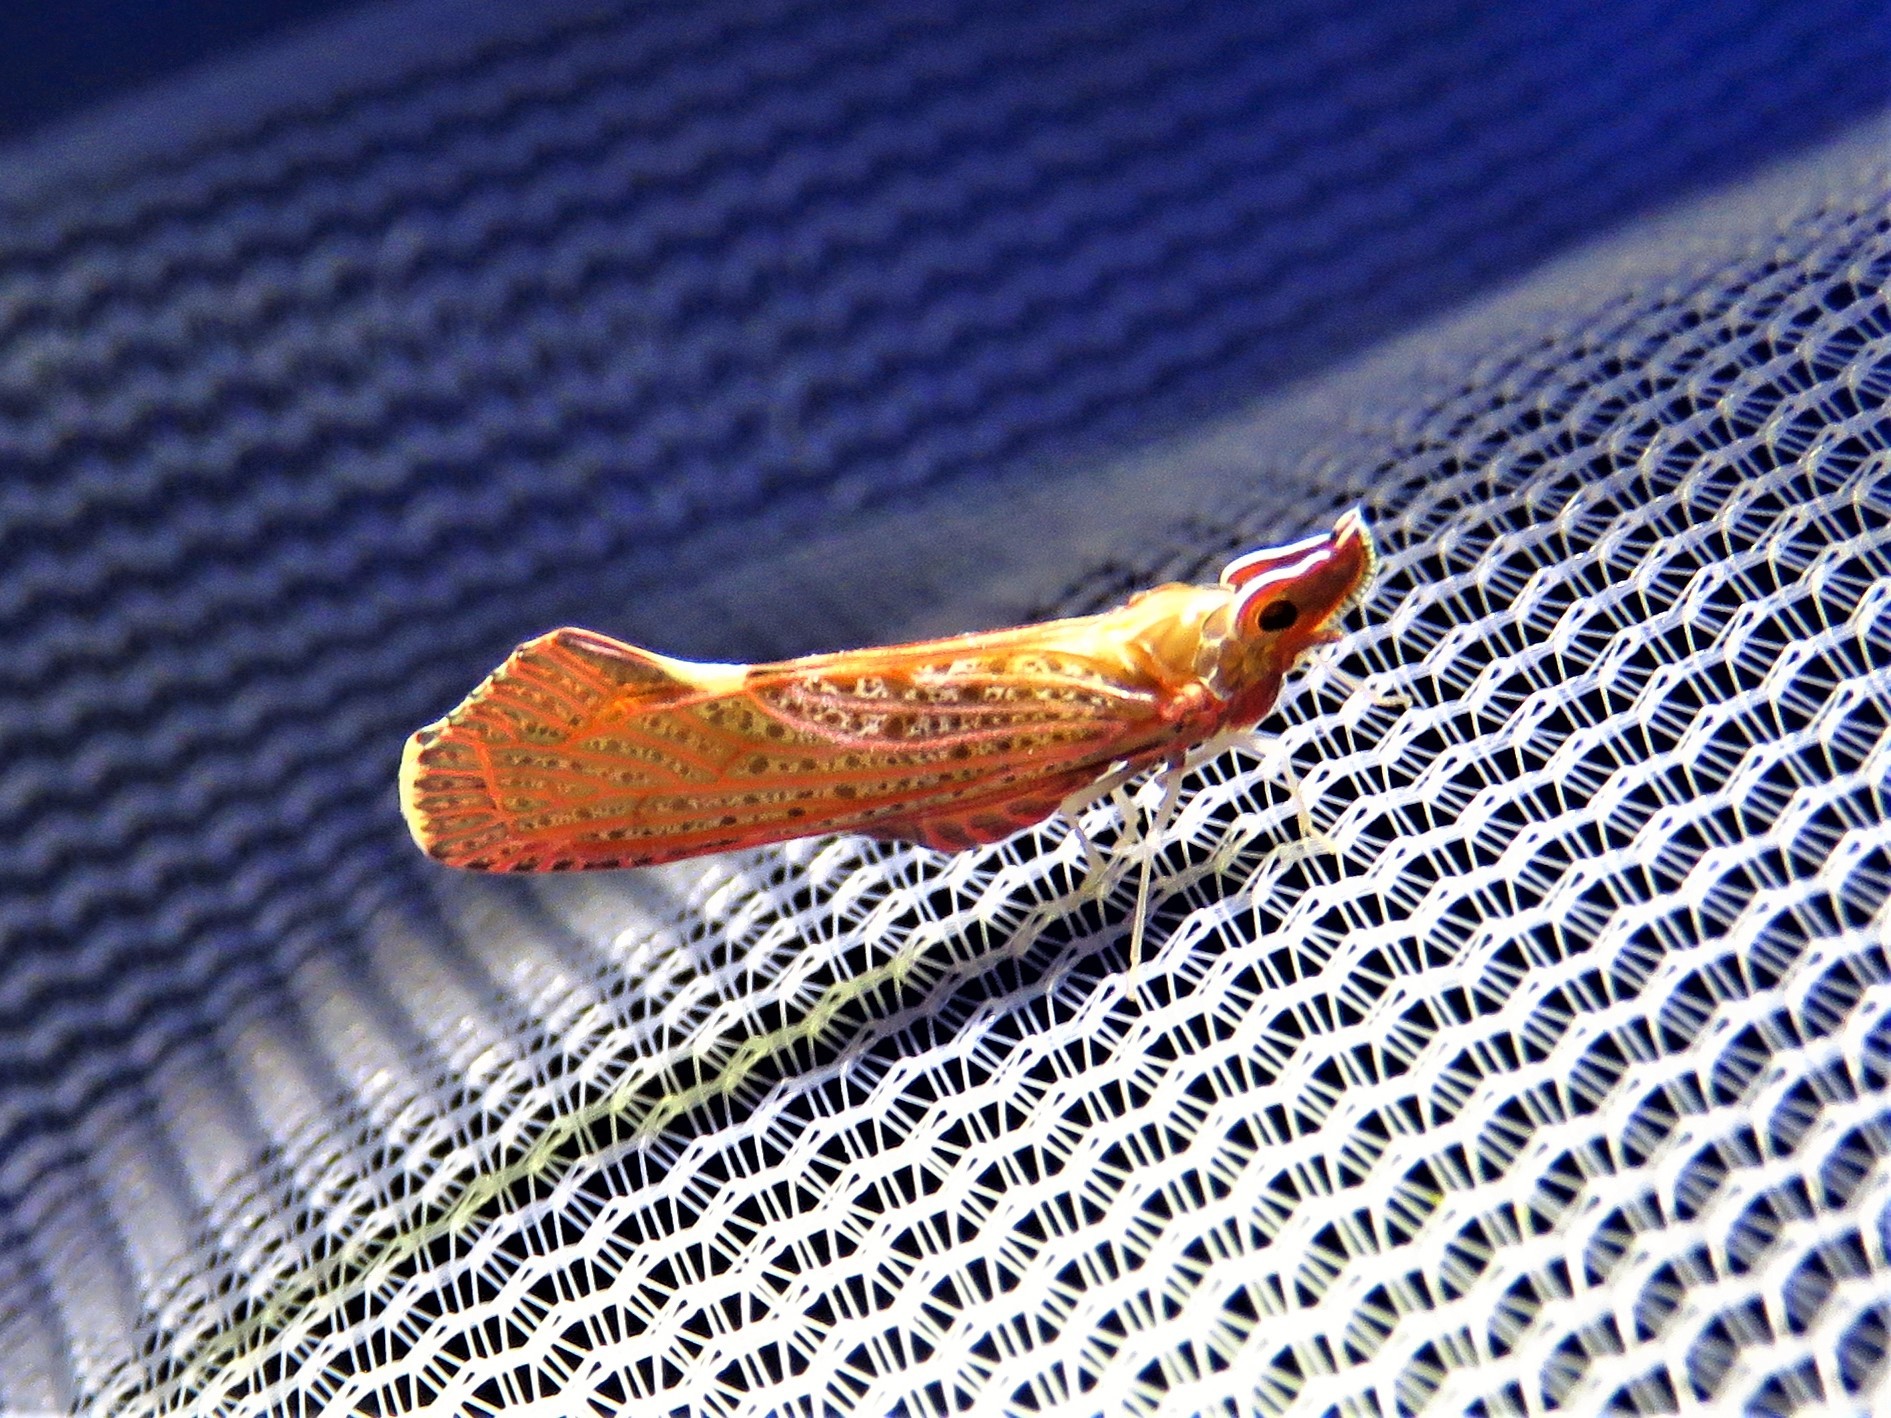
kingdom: Animalia
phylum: Arthropoda
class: Insecta
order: Hemiptera
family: Derbidae
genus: Apache
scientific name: Apache degeeri
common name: Red-fanned planthopper
